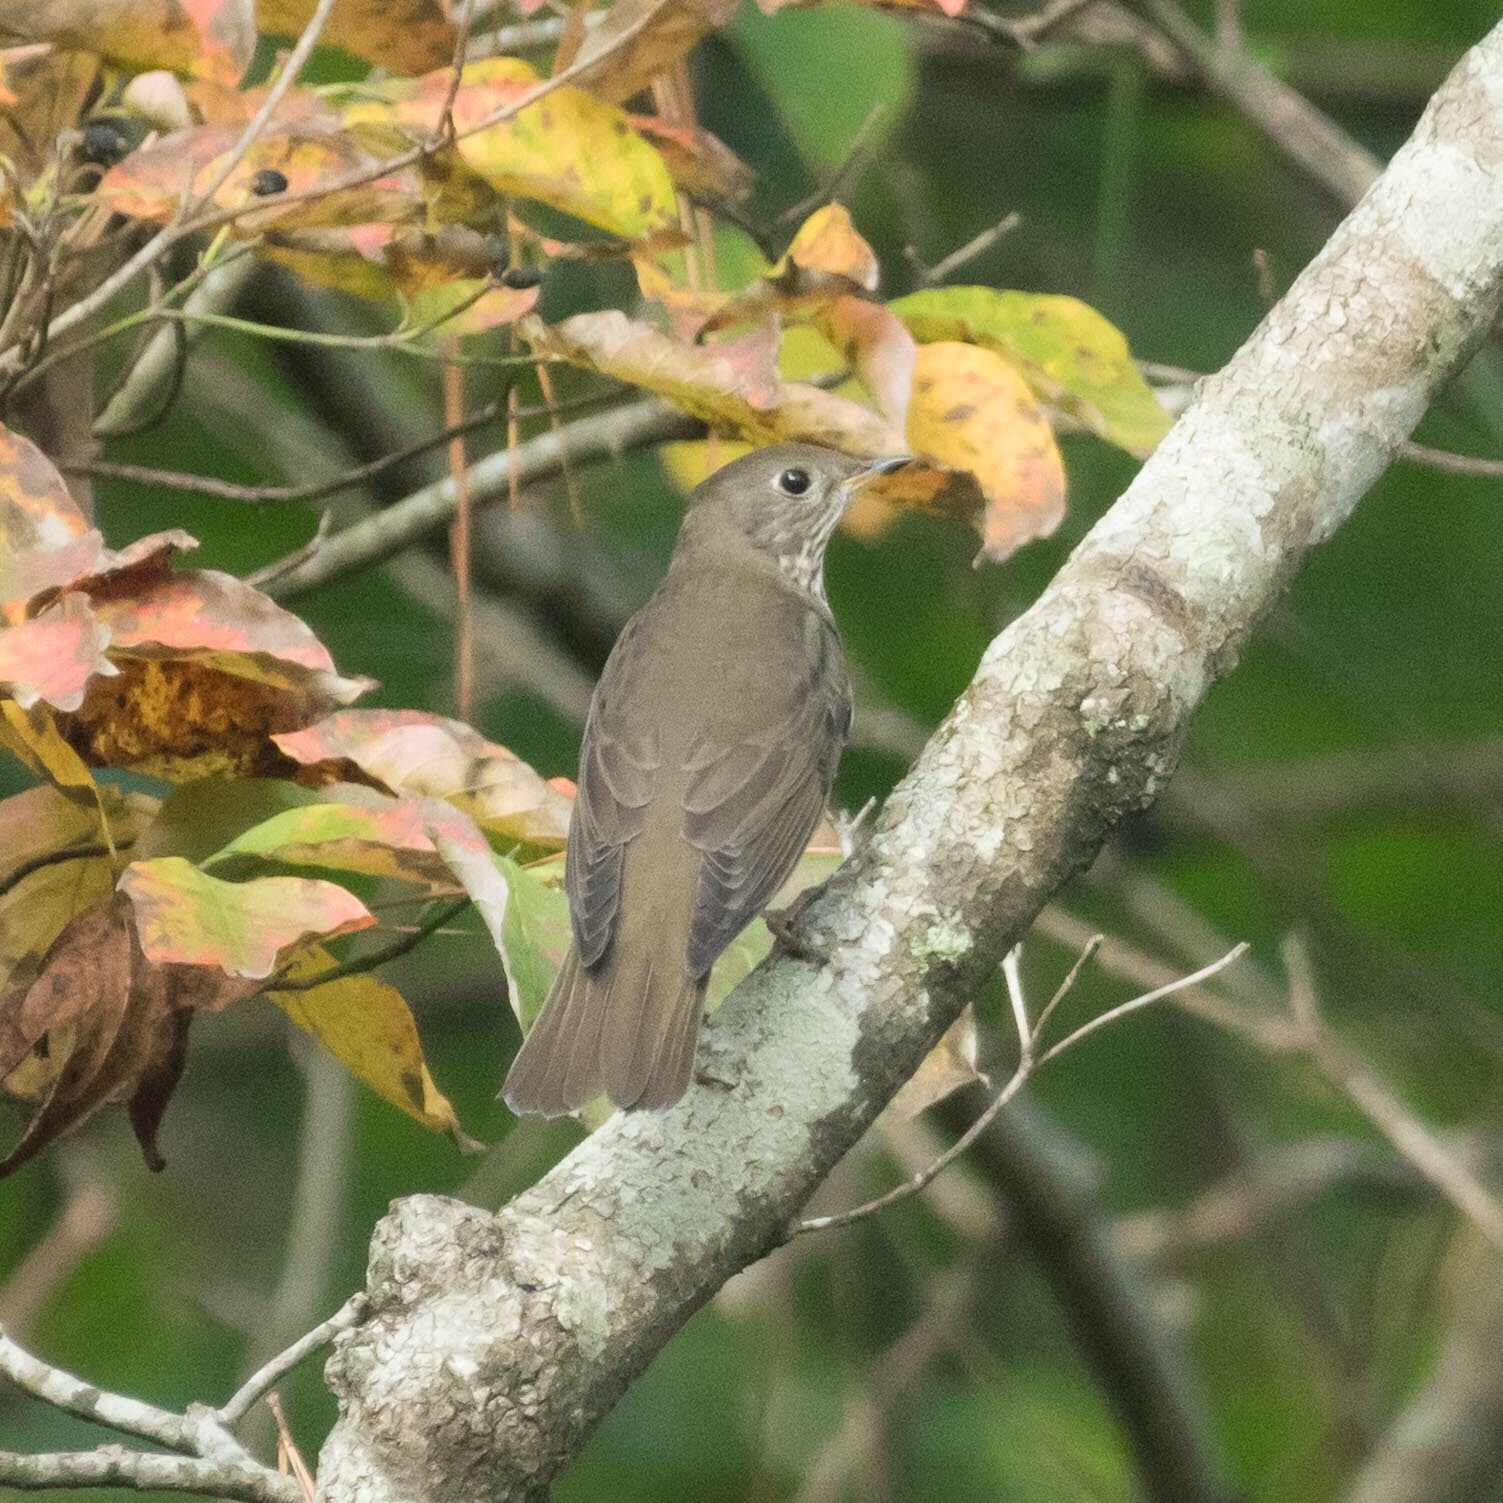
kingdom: Animalia
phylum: Chordata
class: Aves
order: Passeriformes
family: Turdidae
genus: Catharus
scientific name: Catharus minimus
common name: Grey-cheeked thrush
